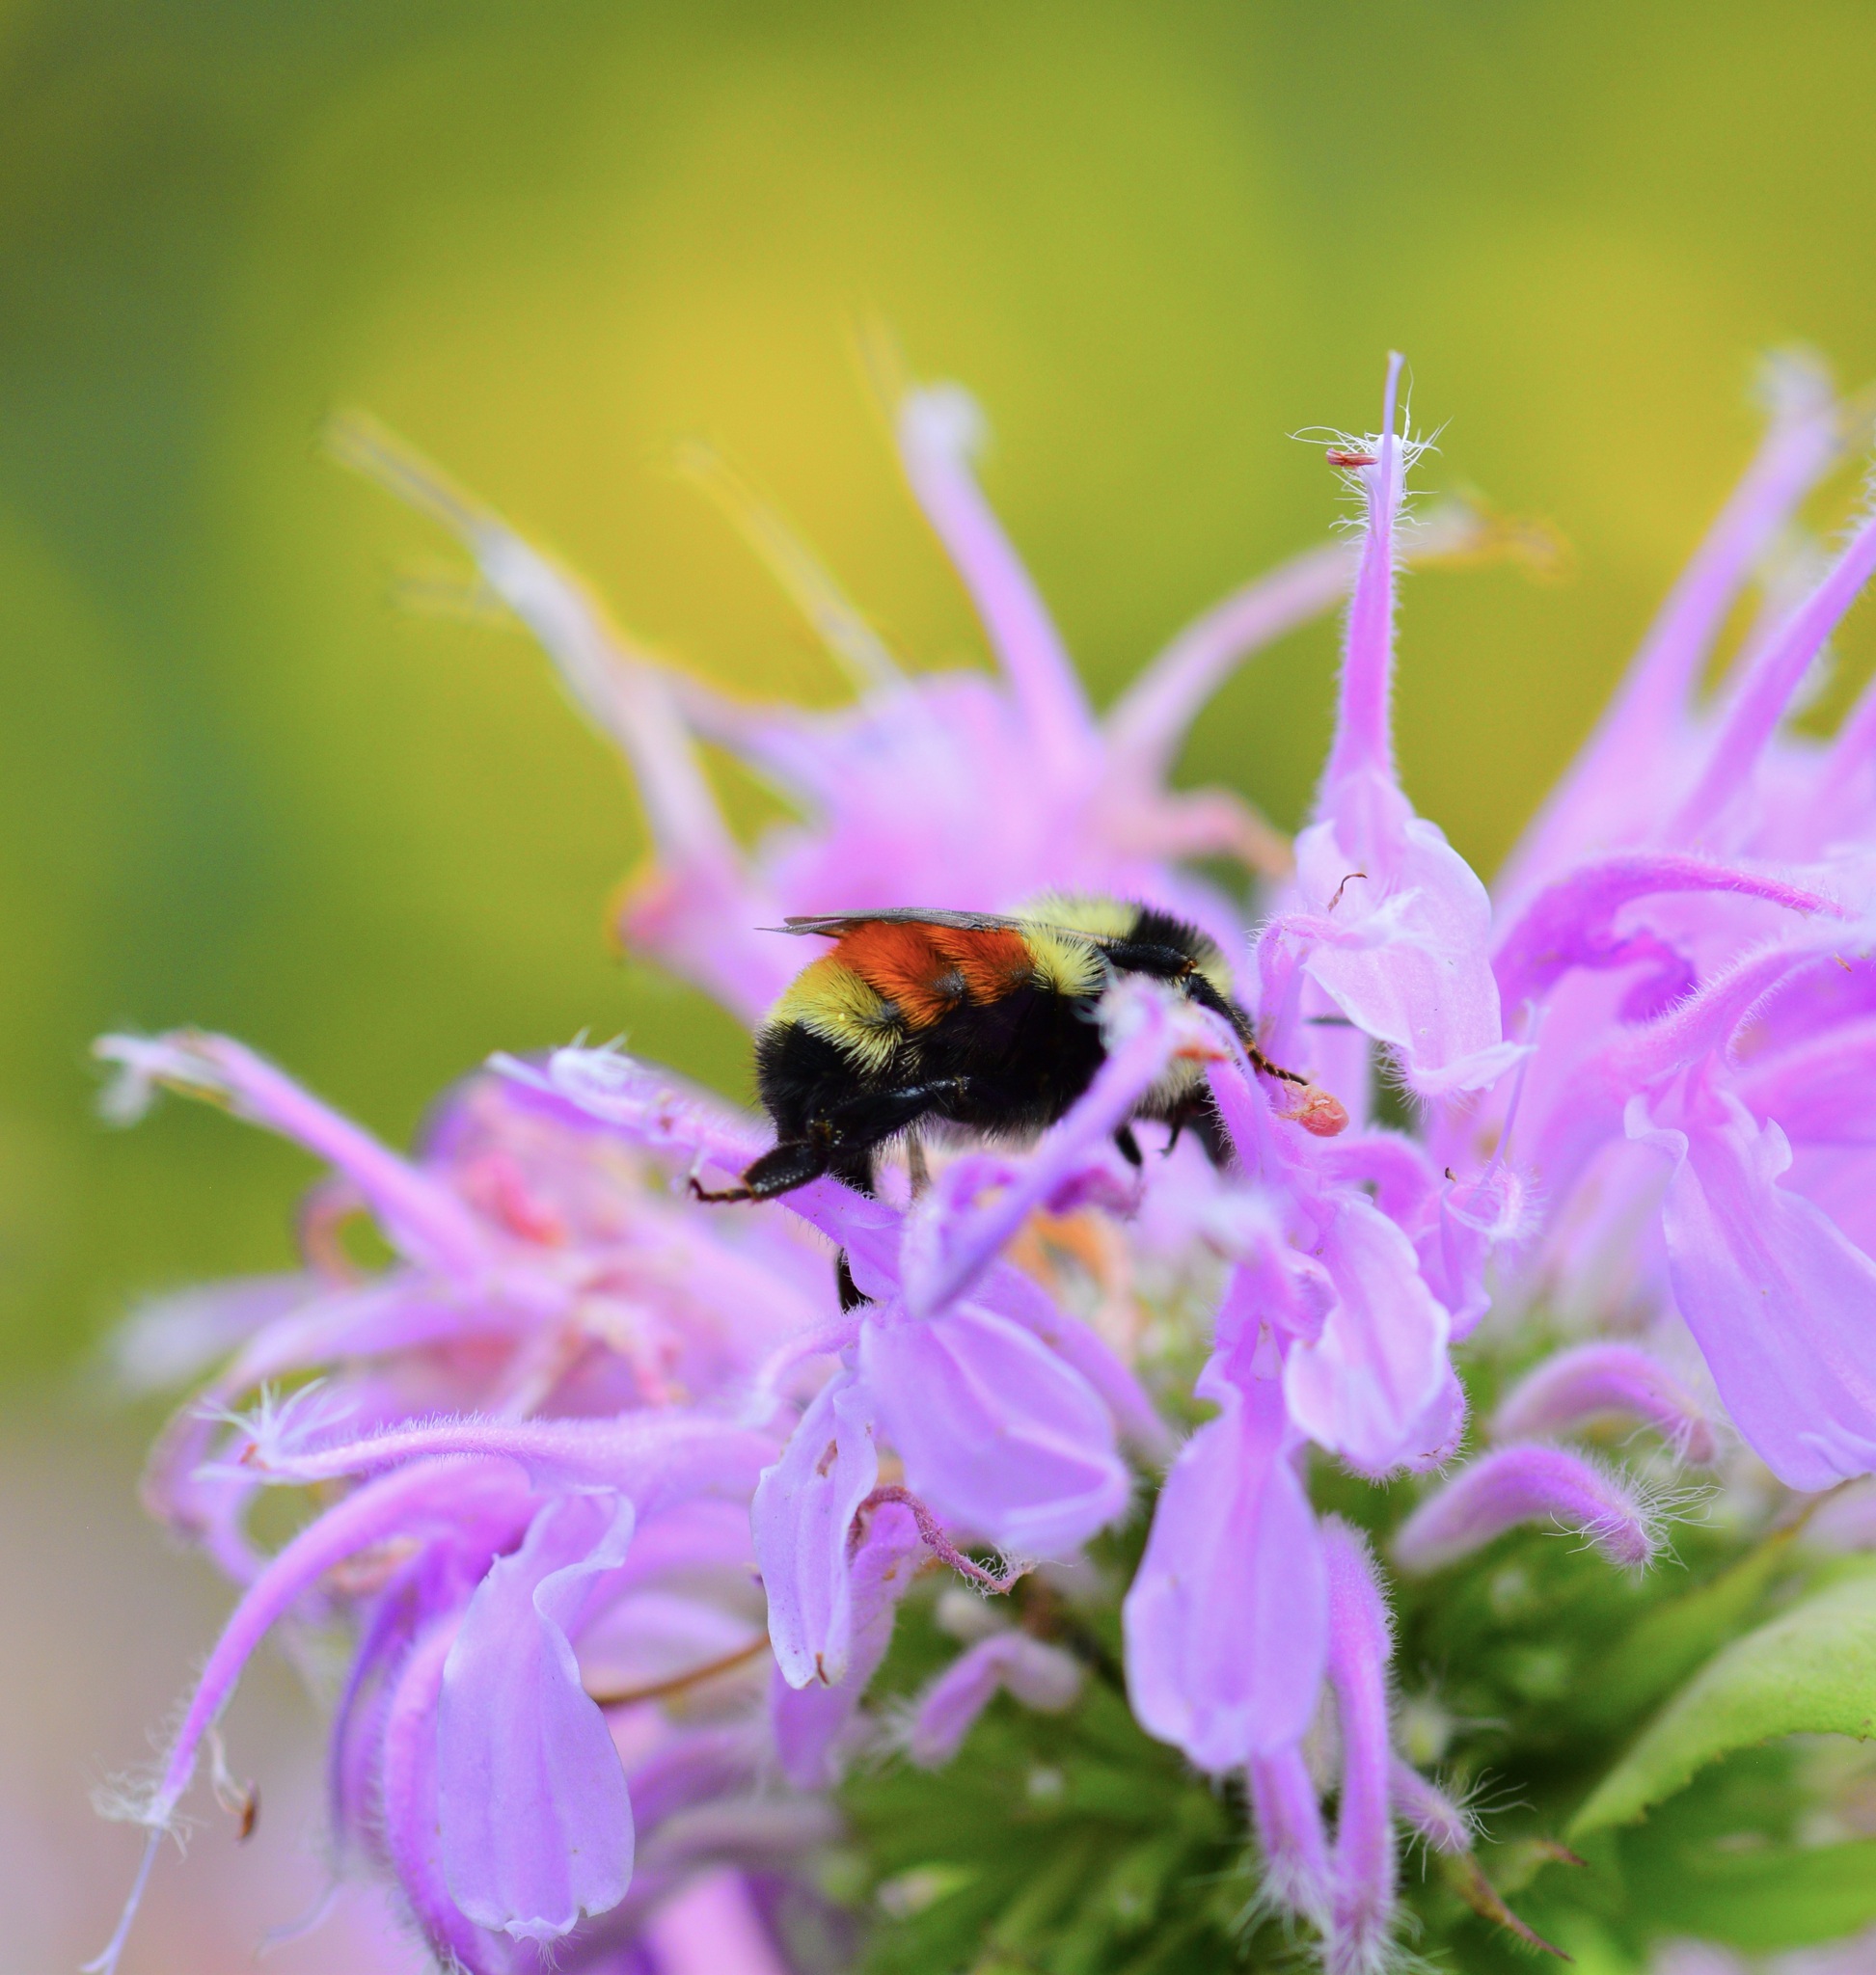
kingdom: Animalia
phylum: Arthropoda
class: Insecta
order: Hymenoptera
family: Apidae
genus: Bombus
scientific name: Bombus ternarius
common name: Tri-colored bumble bee
